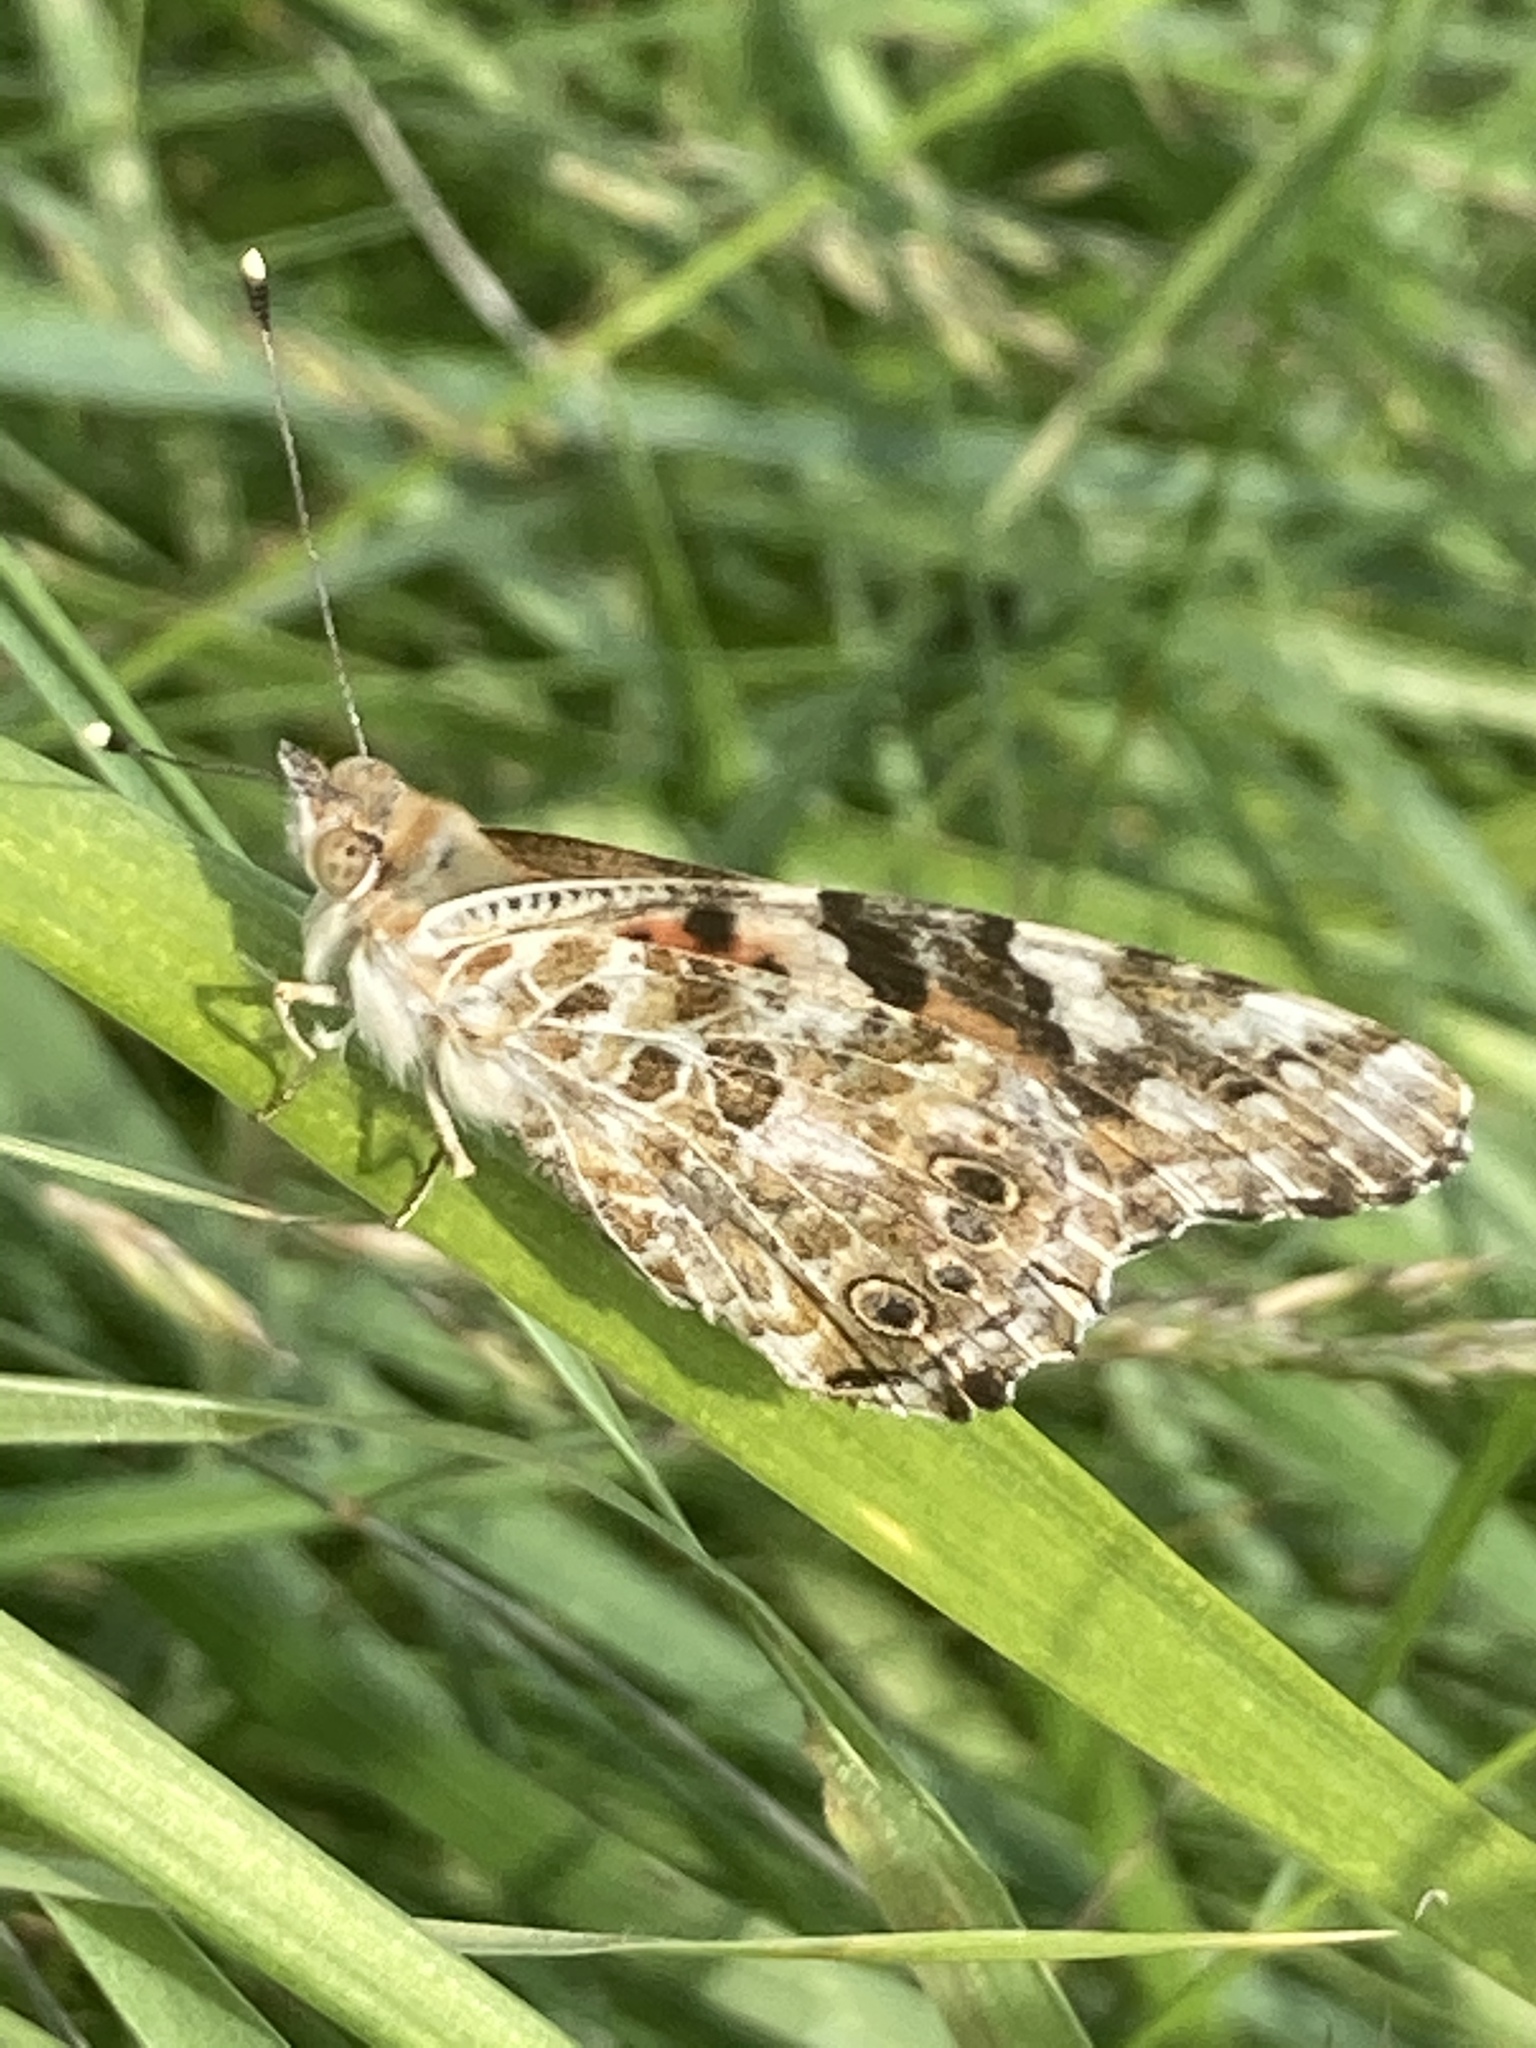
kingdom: Animalia
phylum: Arthropoda
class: Insecta
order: Lepidoptera
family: Nymphalidae
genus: Vanessa
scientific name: Vanessa cardui
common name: Painted lady
